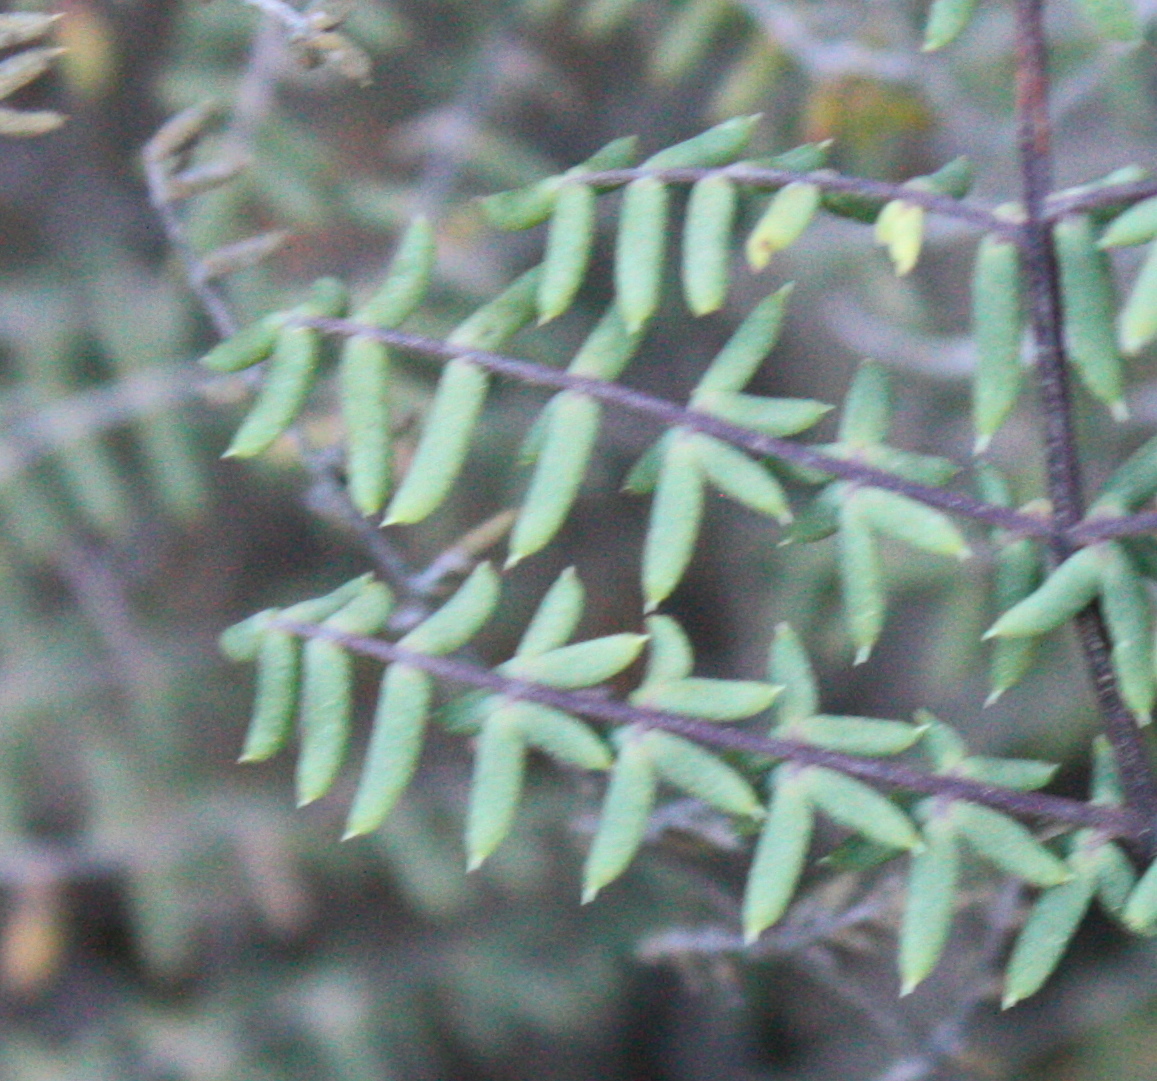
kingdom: Plantae
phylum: Tracheophyta
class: Polypodiopsida
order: Polypodiales
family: Pteridaceae
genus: Pellaea
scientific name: Pellaea mucronata
